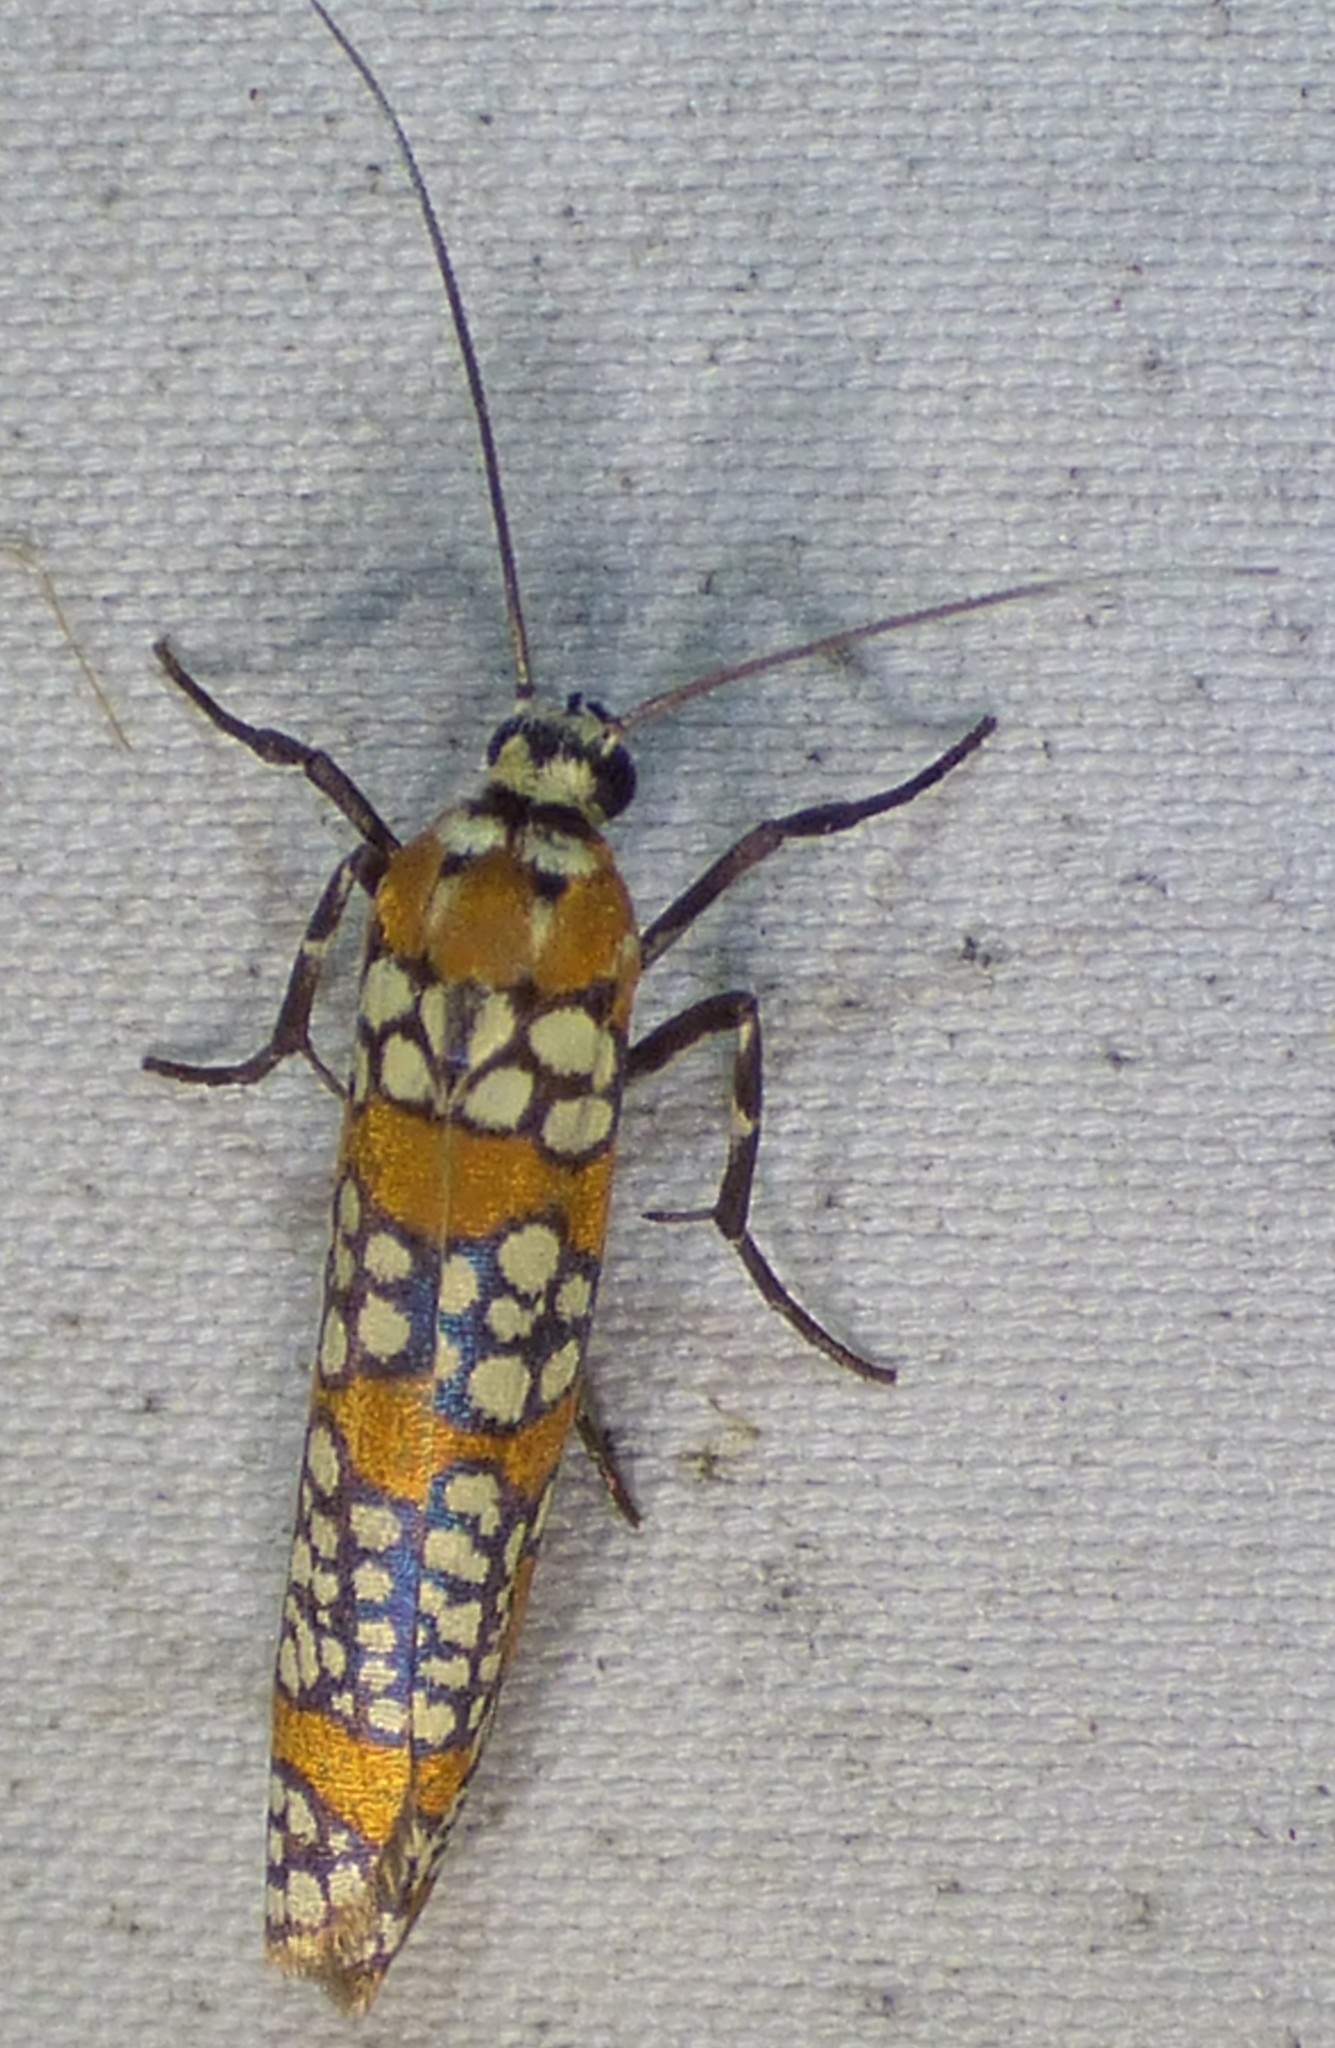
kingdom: Animalia
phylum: Arthropoda
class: Insecta
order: Lepidoptera
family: Attevidae
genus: Atteva
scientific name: Atteva punctella
